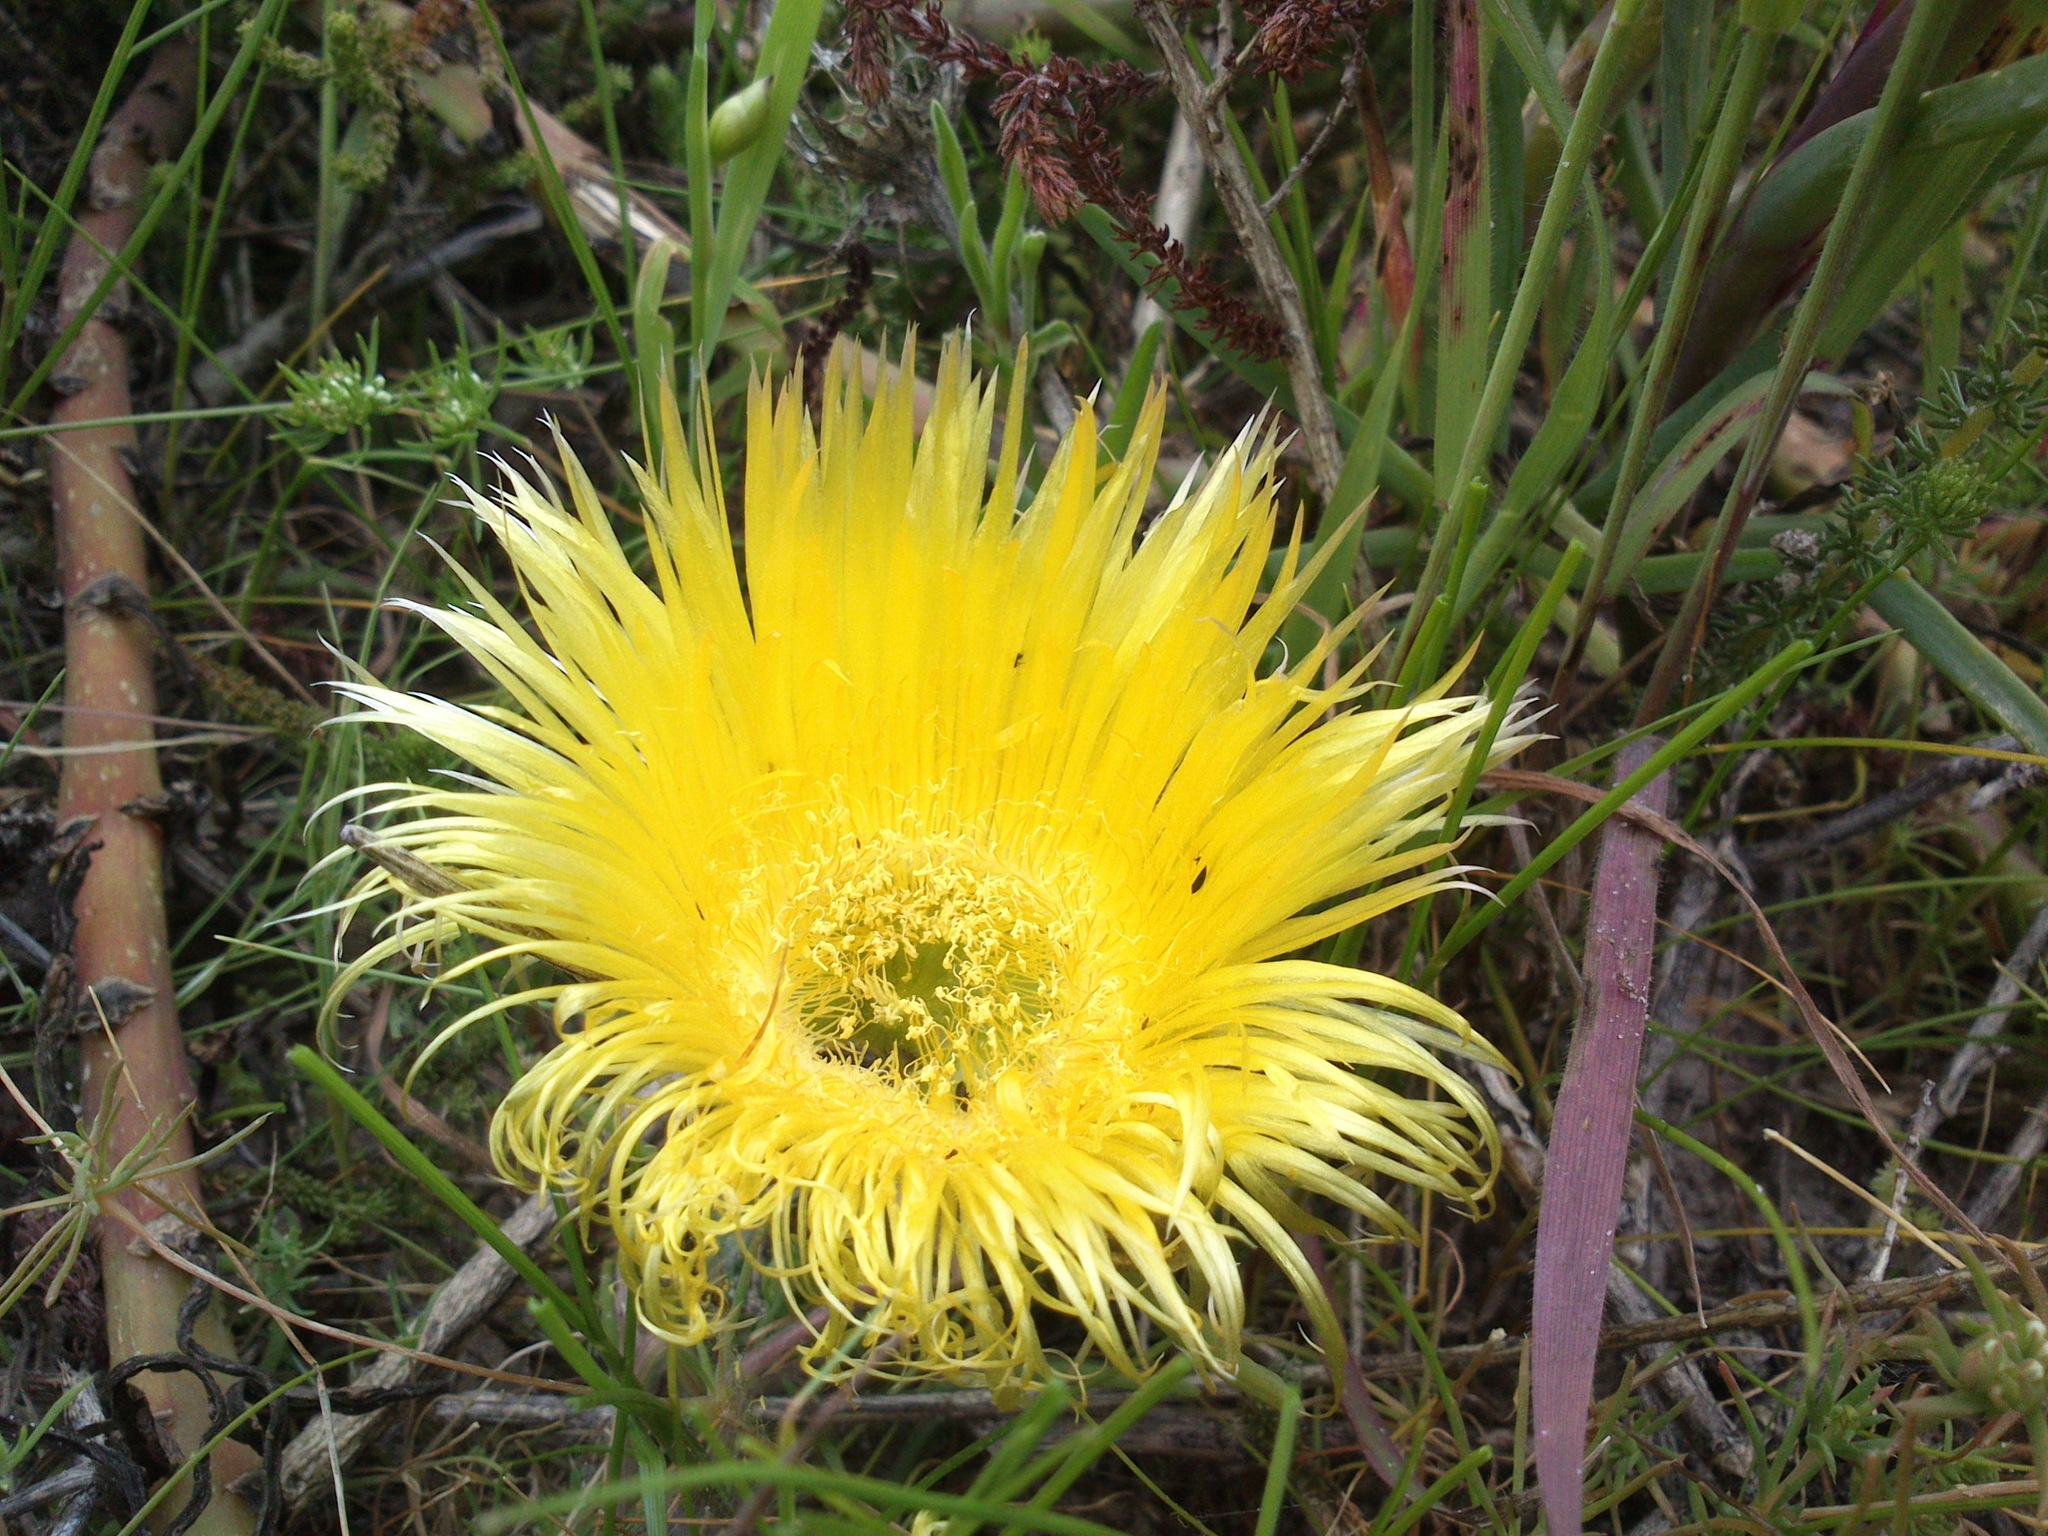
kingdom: Plantae
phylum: Tracheophyta
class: Magnoliopsida
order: Caryophyllales
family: Aizoaceae
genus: Conicosia
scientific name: Conicosia pugioniformis
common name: Narrow-leaved iceplant
